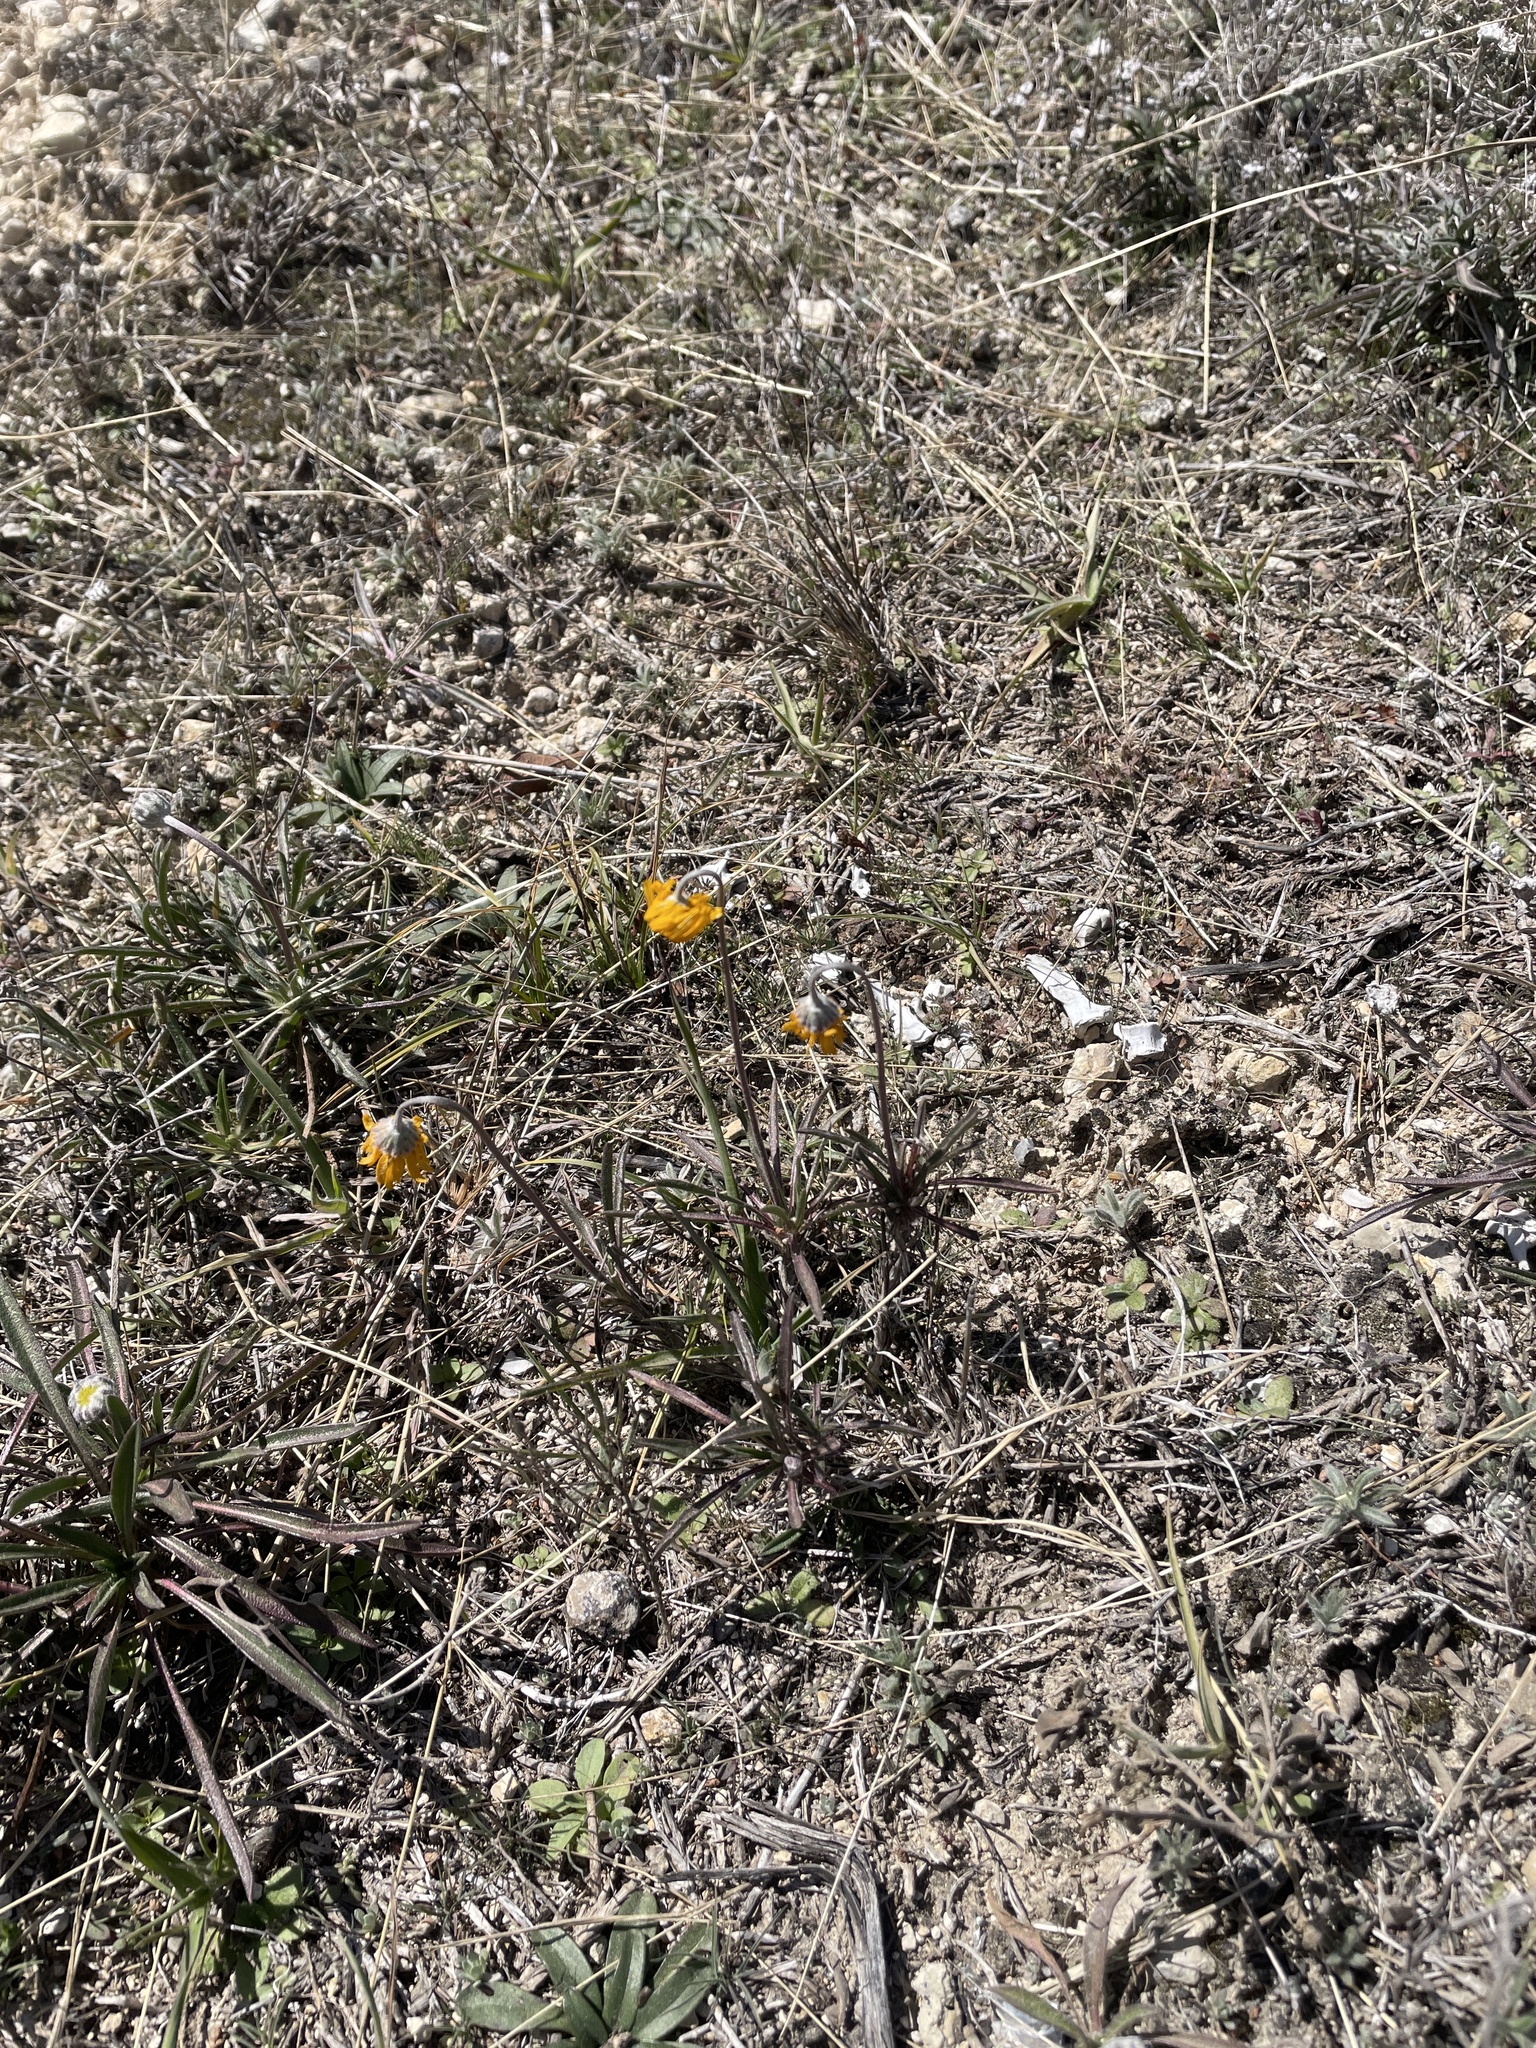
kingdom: Plantae
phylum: Tracheophyta
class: Magnoliopsida
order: Asterales
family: Asteraceae
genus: Tetraneuris
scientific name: Tetraneuris scaposa
